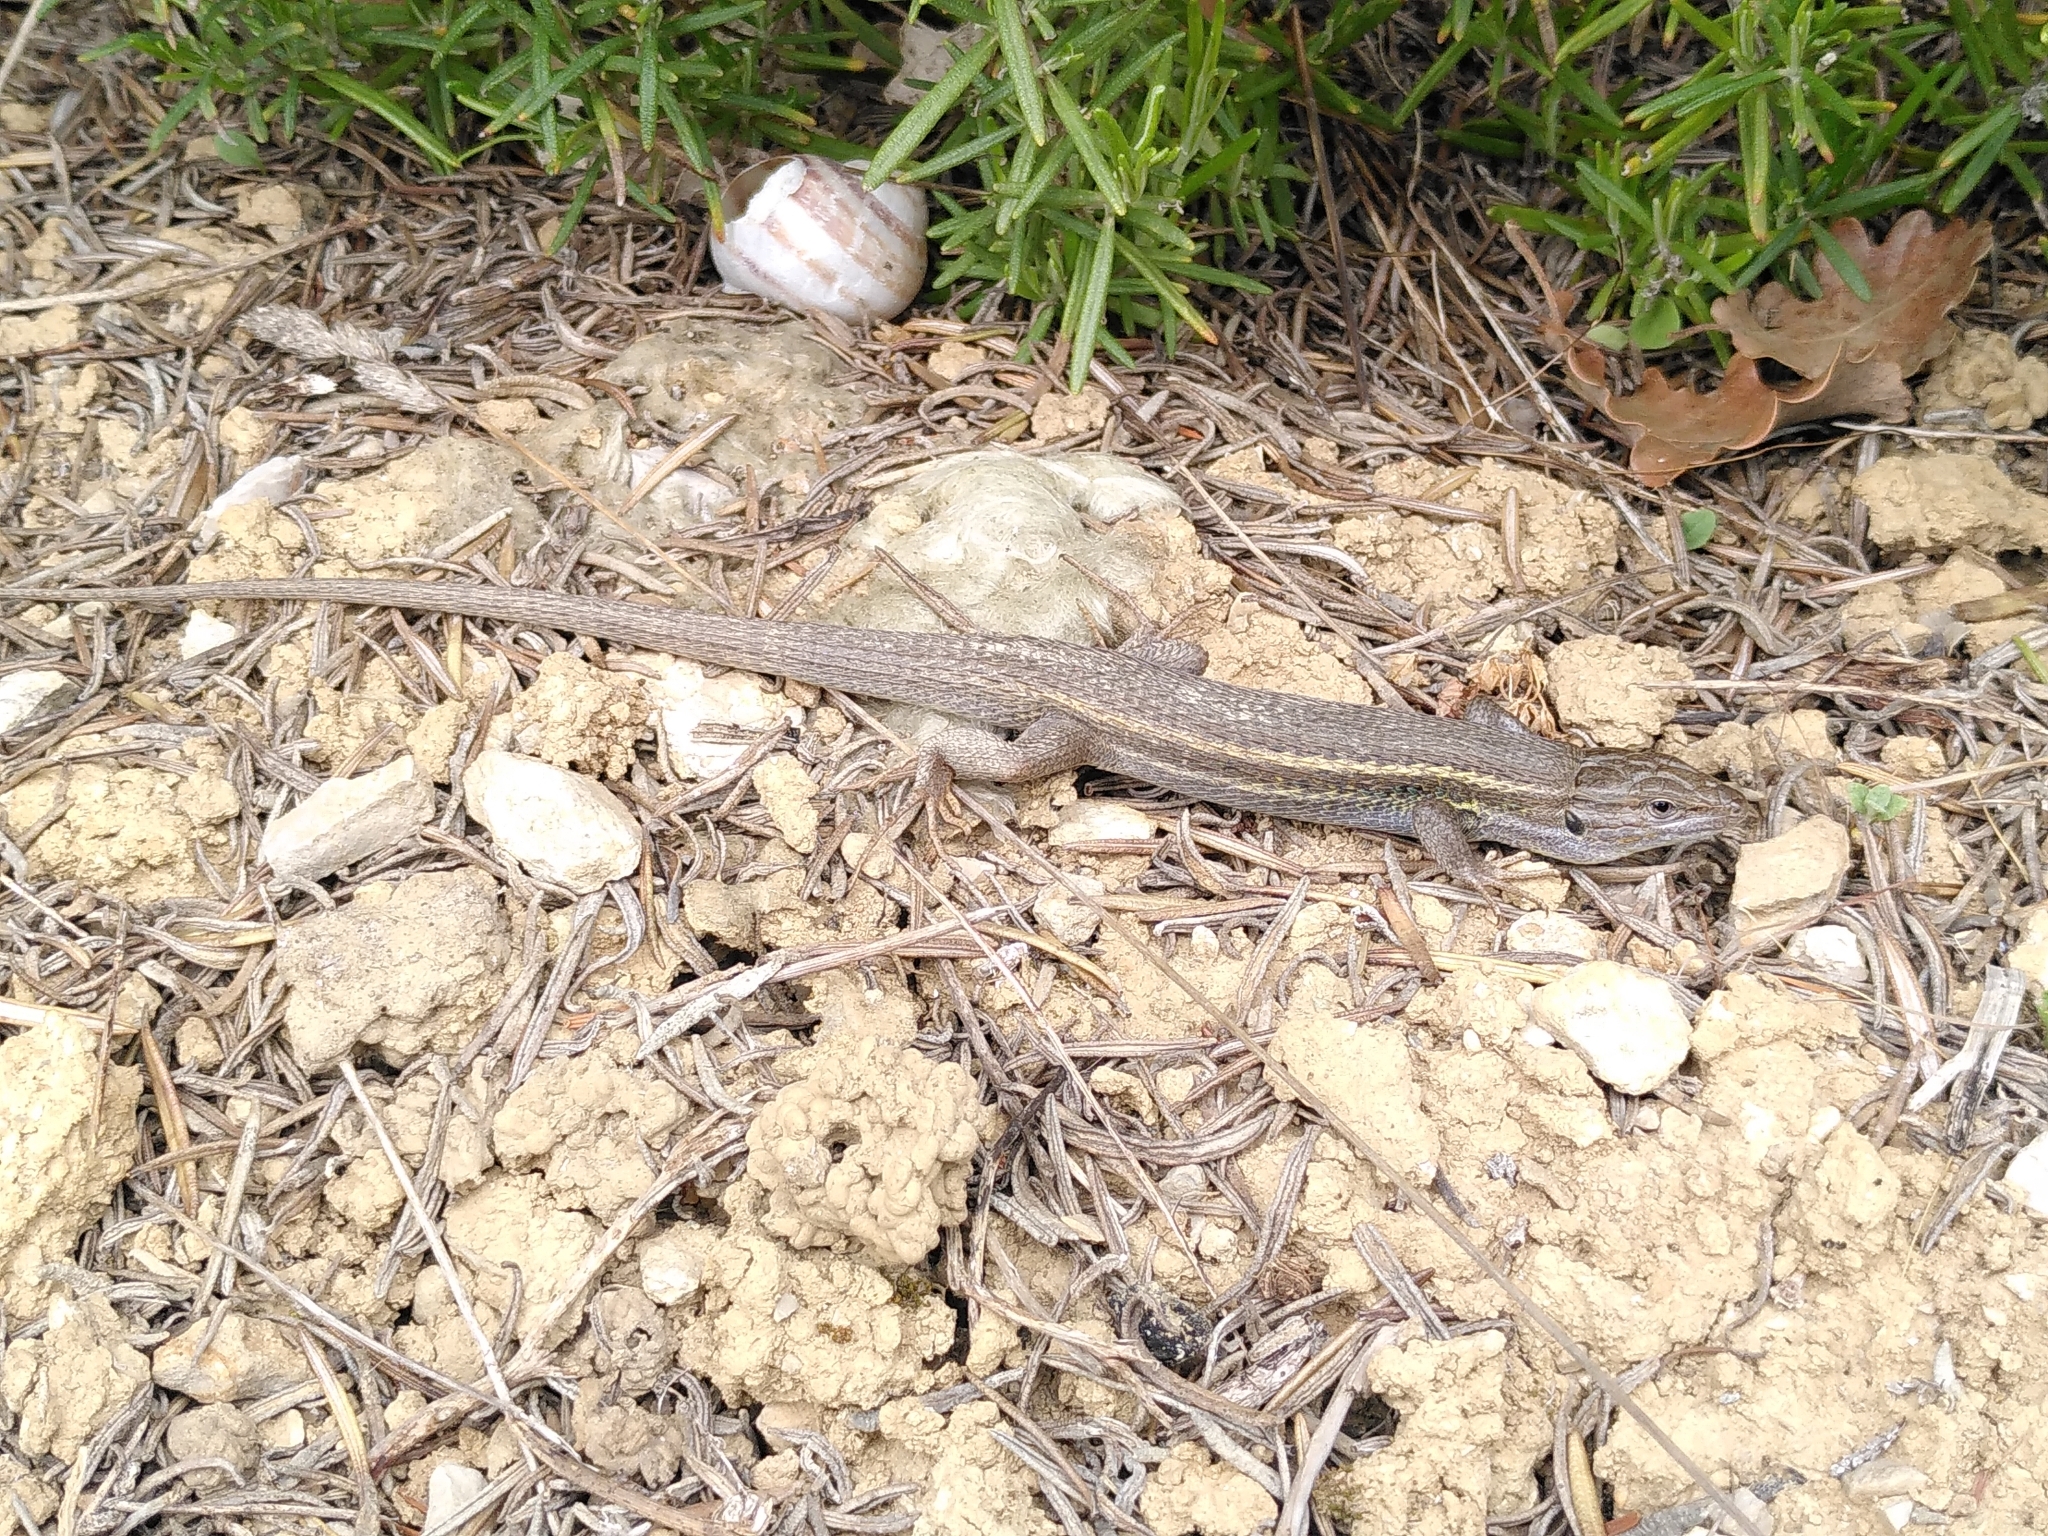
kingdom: Animalia
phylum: Chordata
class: Squamata
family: Lacertidae
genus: Psammodromus
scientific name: Psammodromus algirus
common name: Algerian psammodromus
